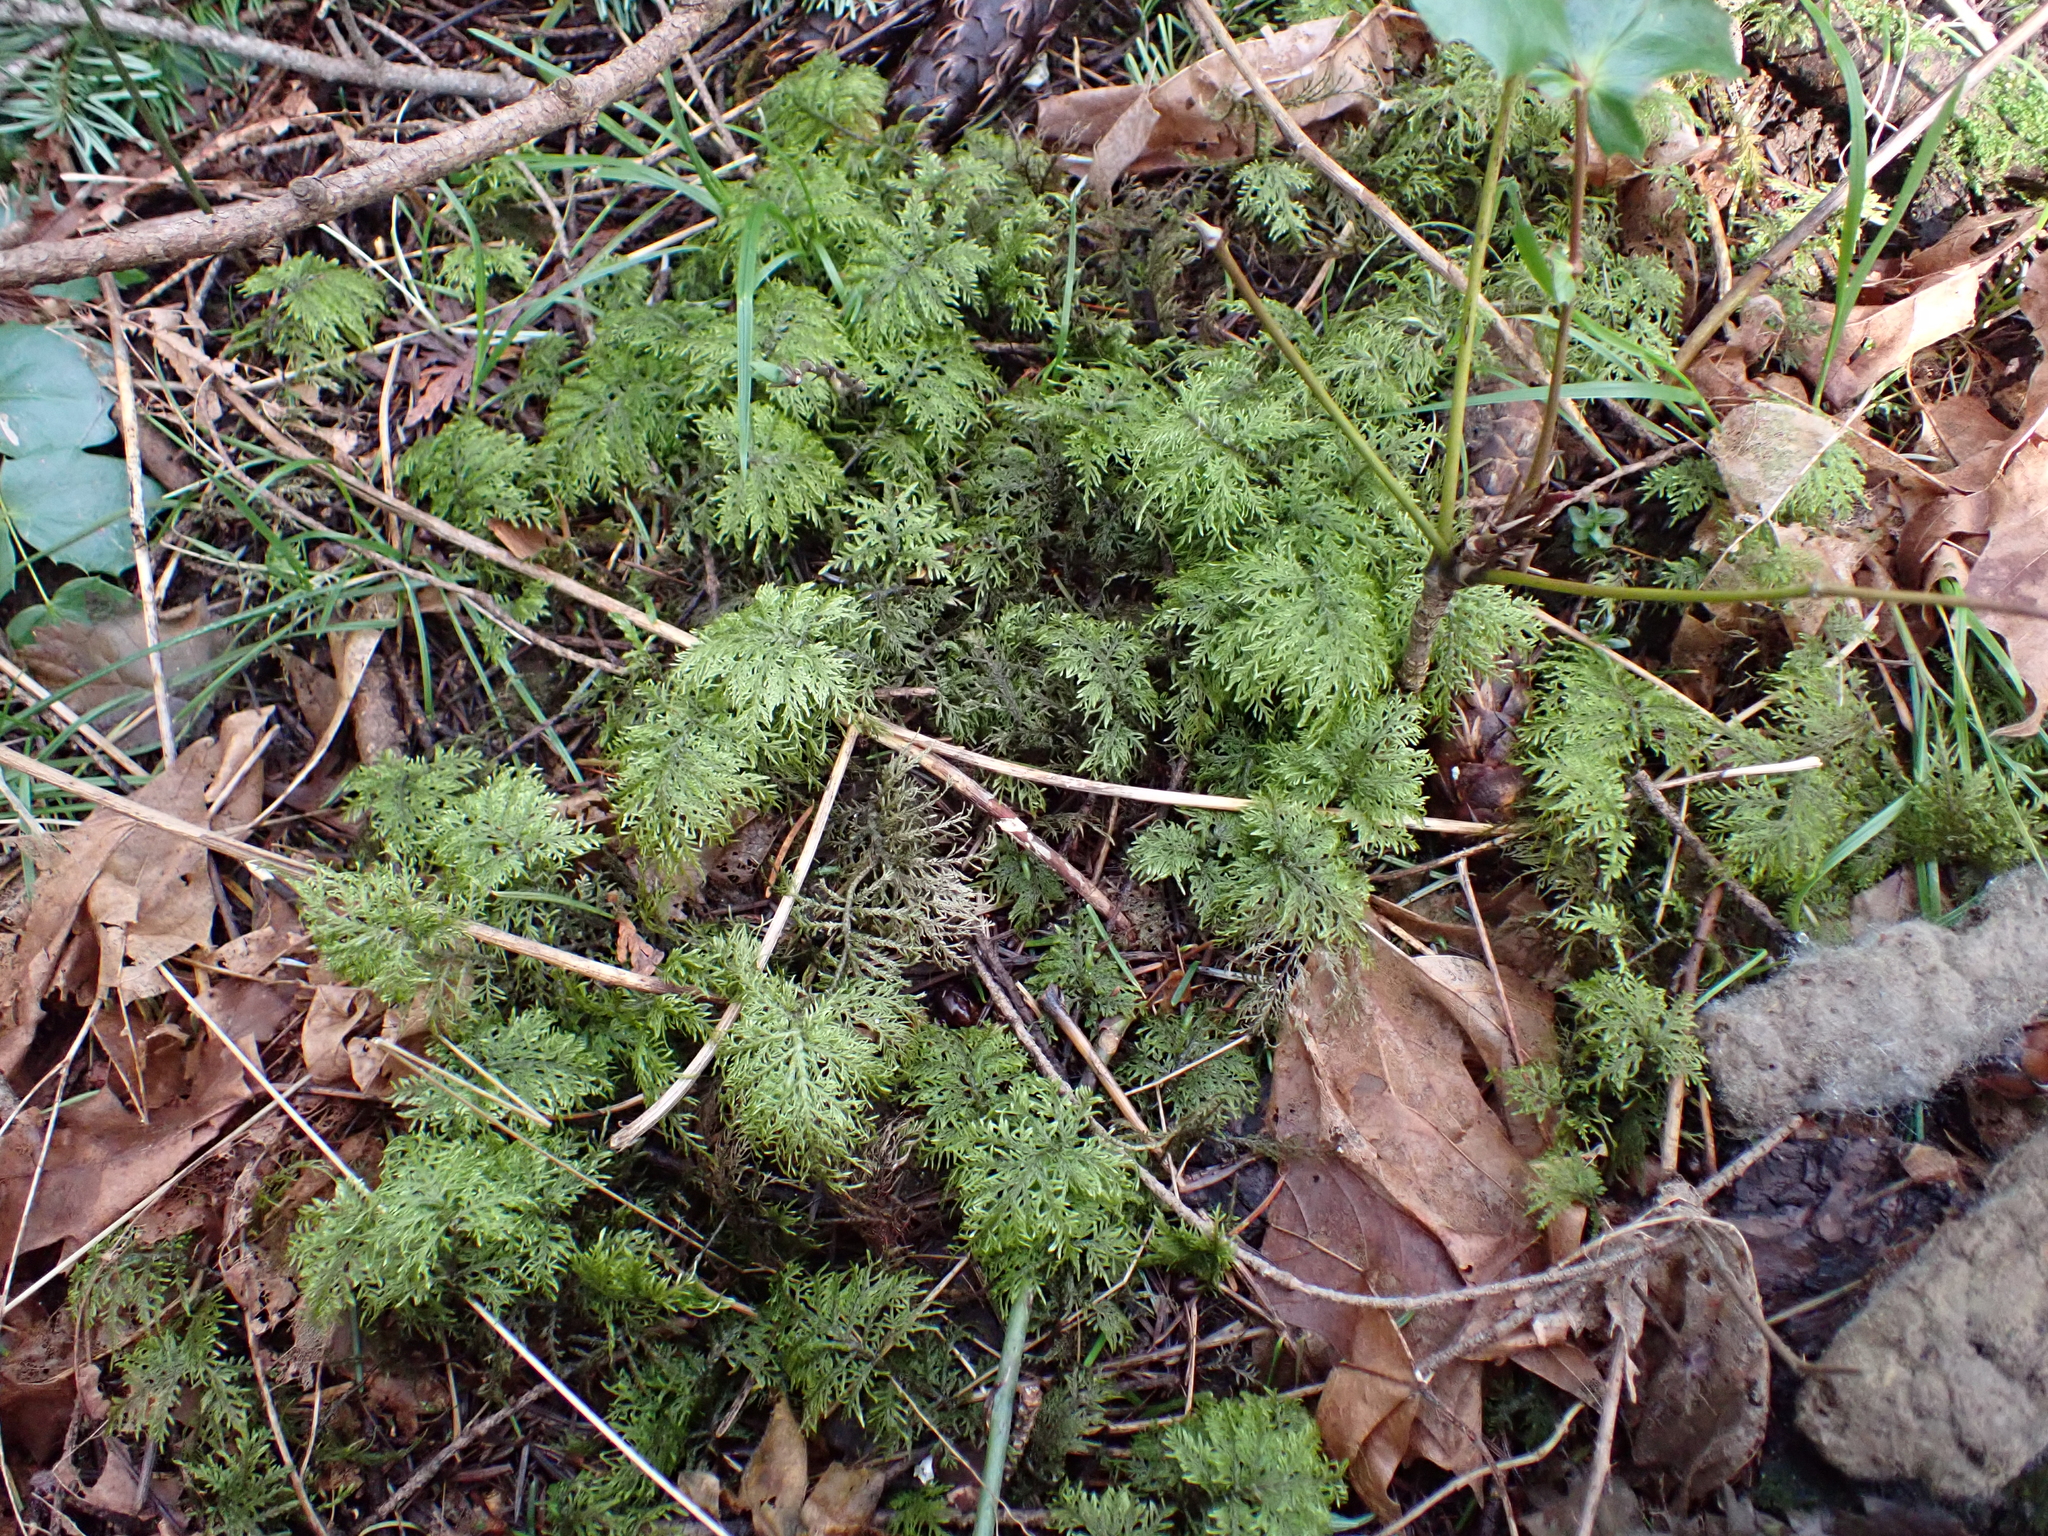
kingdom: Plantae
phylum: Bryophyta
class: Bryopsida
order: Hypnales
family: Hylocomiaceae
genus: Hylocomium
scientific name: Hylocomium splendens
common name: Stairstep moss
